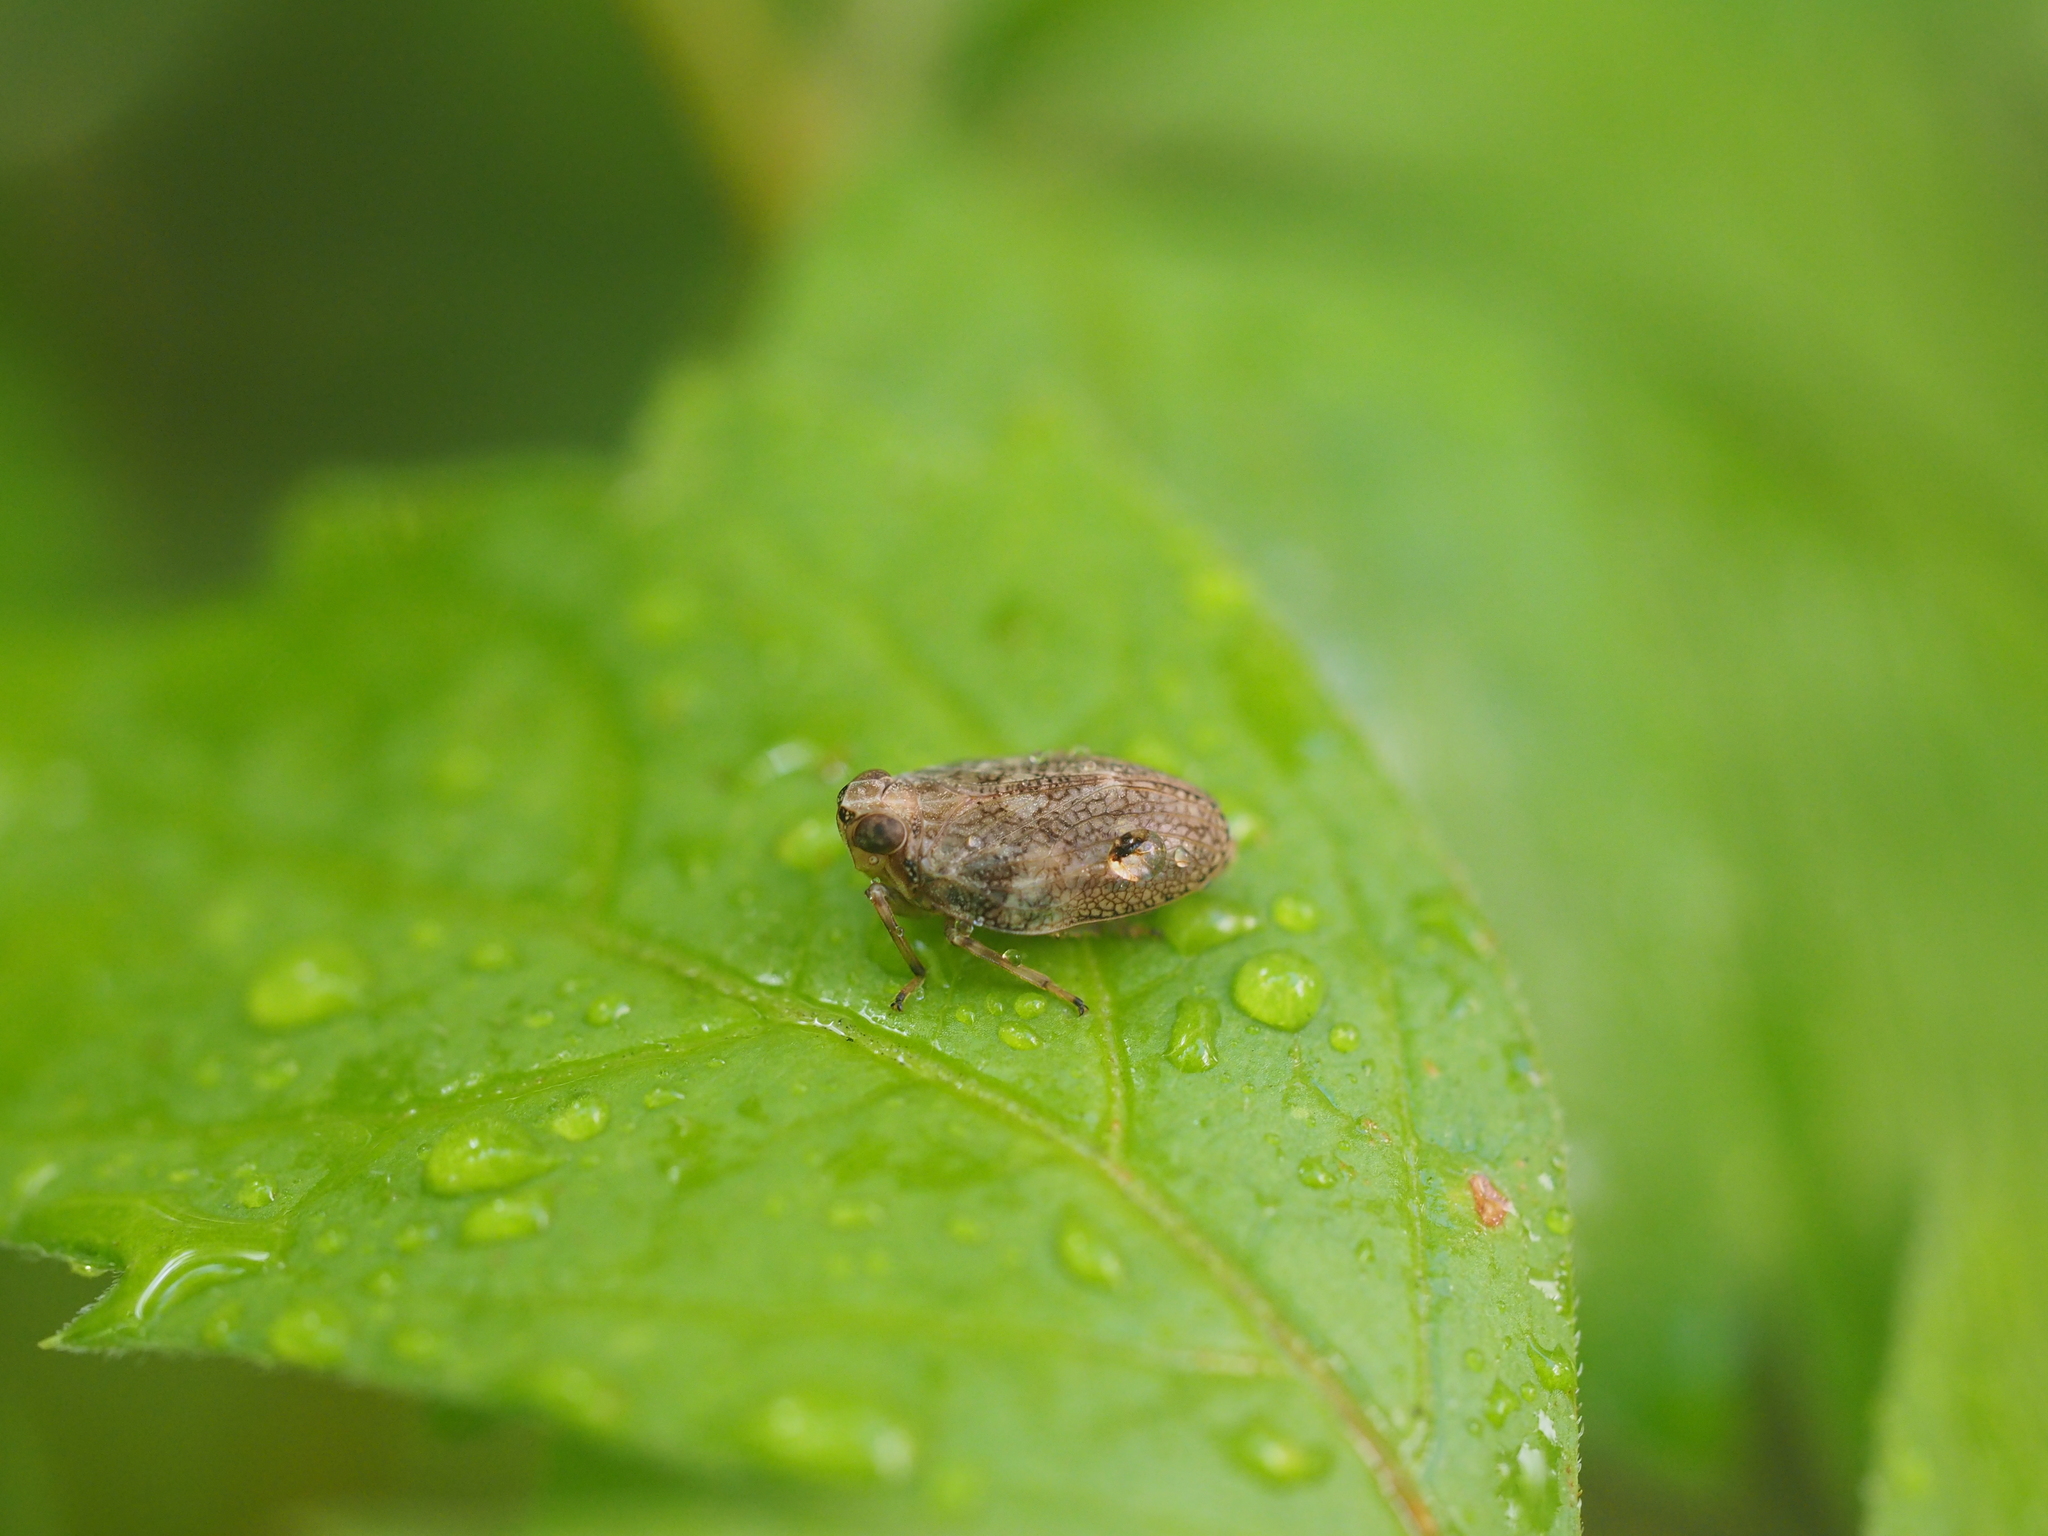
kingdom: Animalia
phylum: Arthropoda
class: Insecta
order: Hemiptera
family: Issidae
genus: Issus
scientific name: Issus coleoptratus
